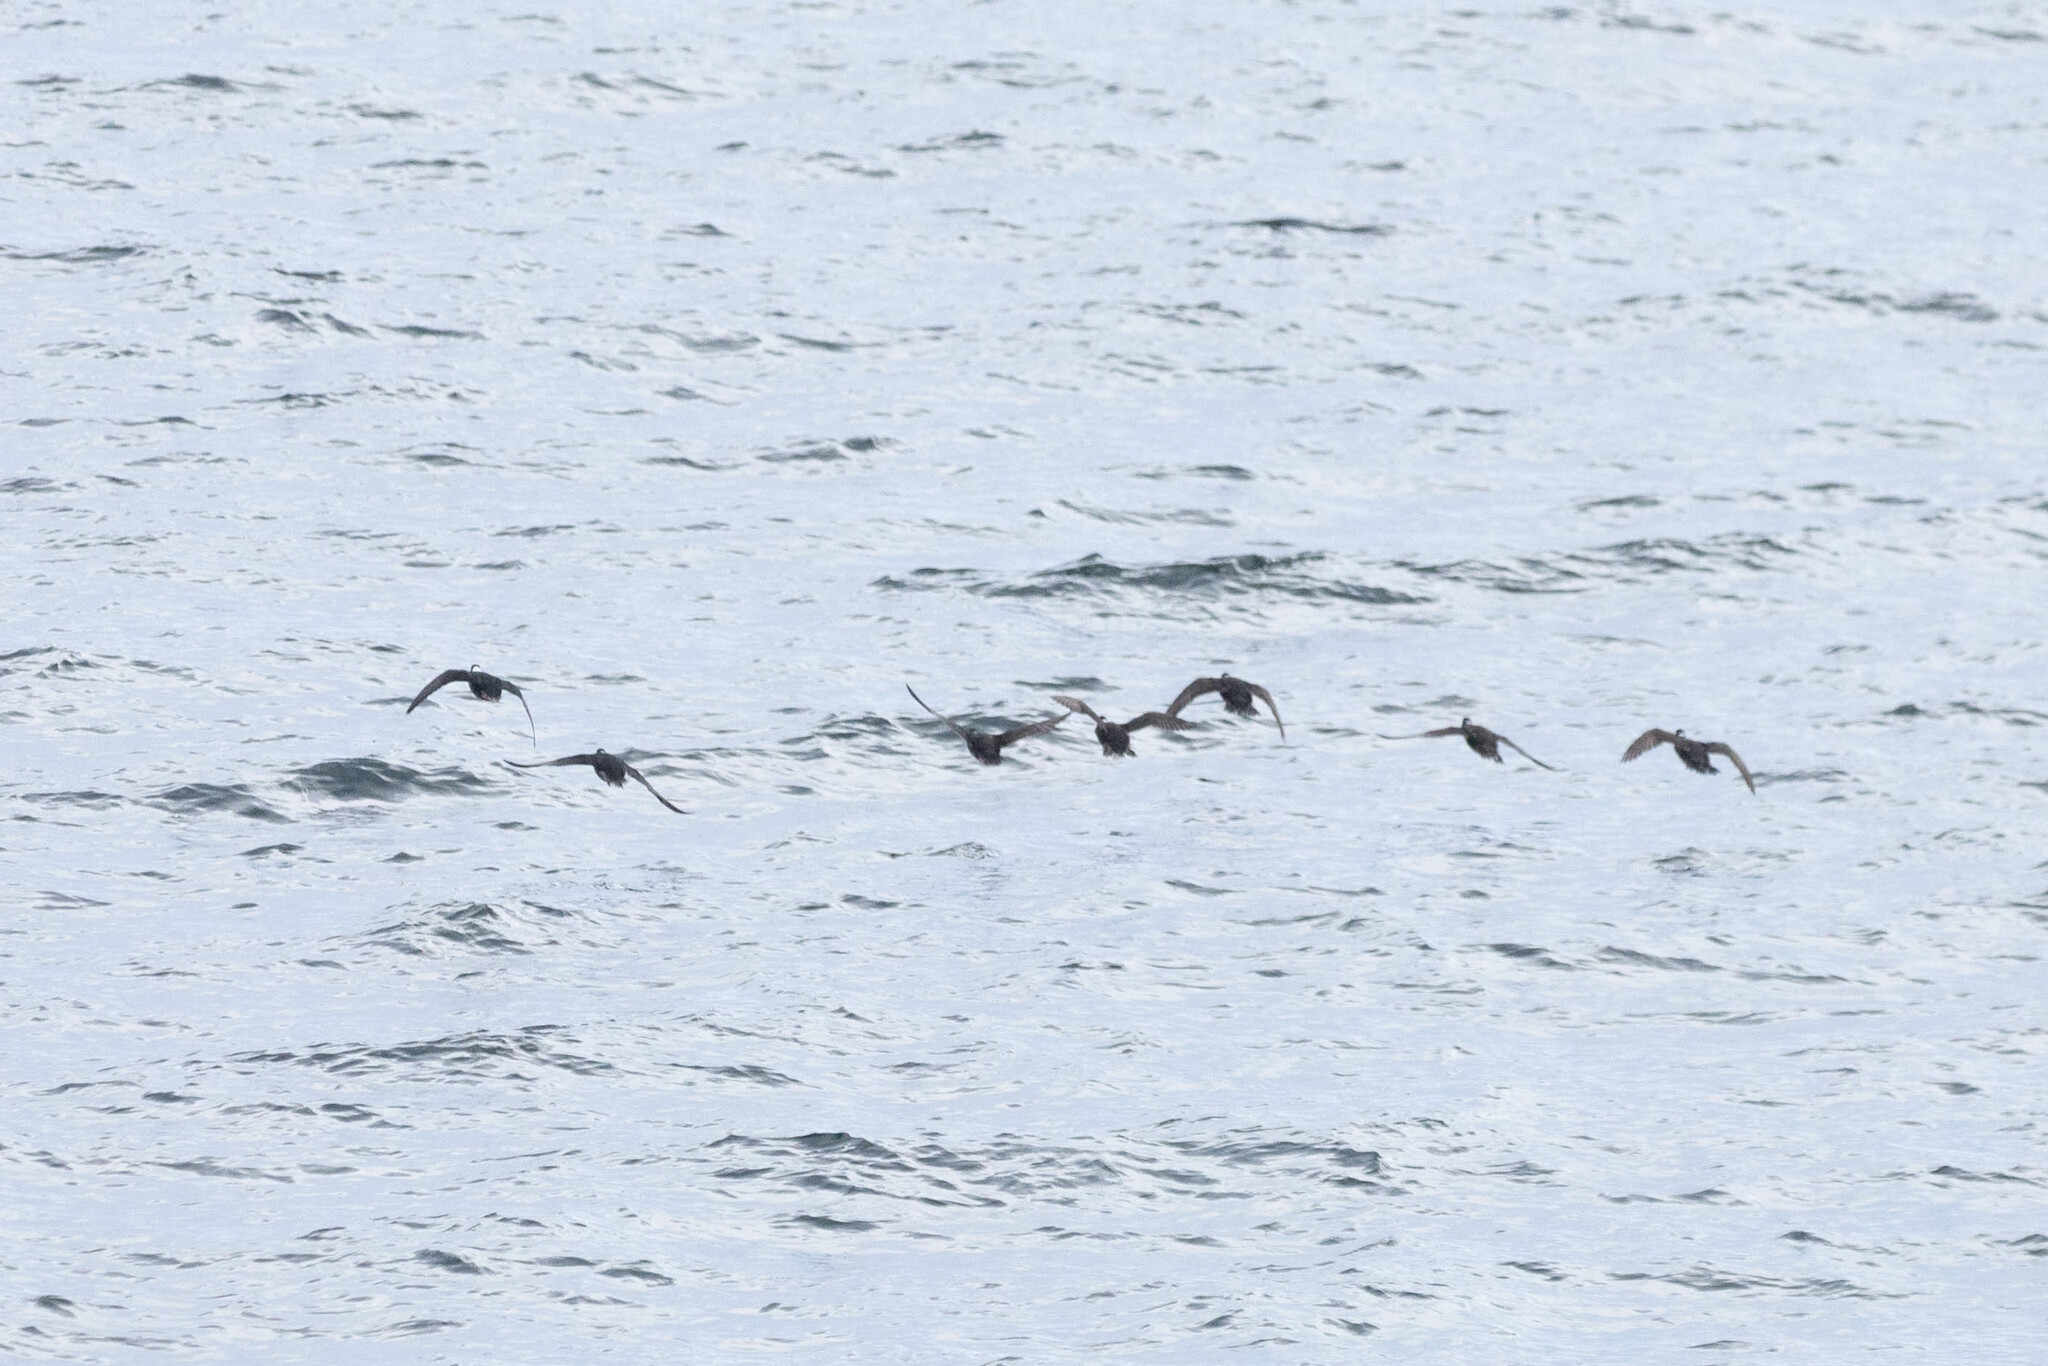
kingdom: Animalia
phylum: Chordata
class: Aves
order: Anseriformes
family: Anatidae
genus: Melanitta
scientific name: Melanitta perspicillata
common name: Surf scoter
